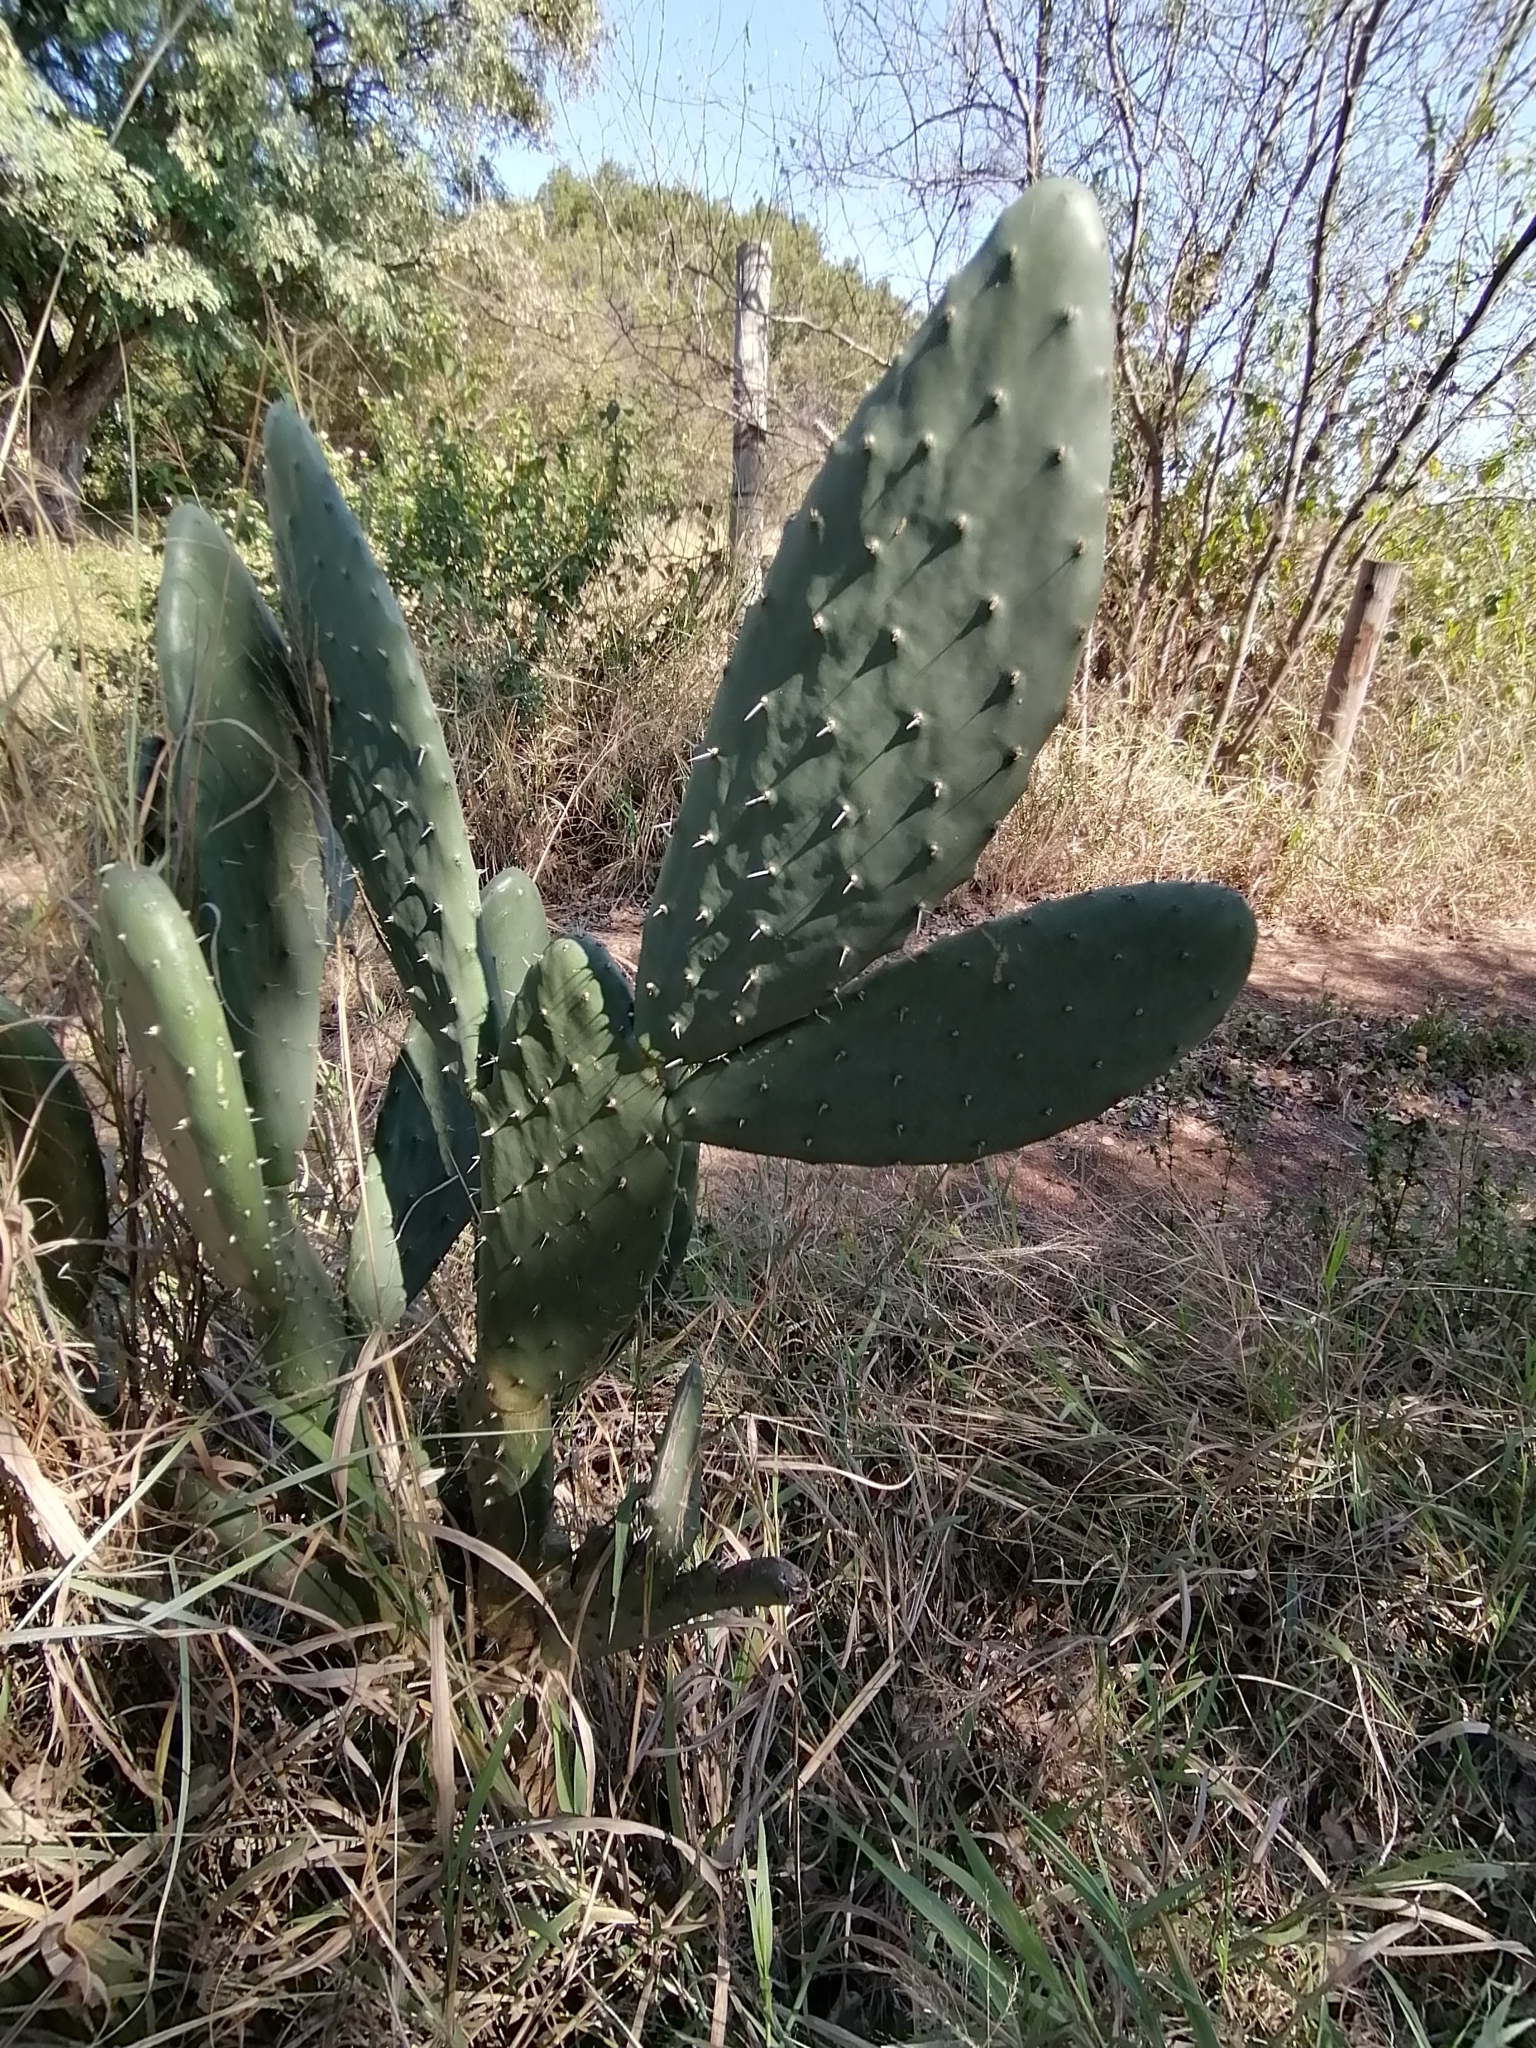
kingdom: Plantae
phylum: Tracheophyta
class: Magnoliopsida
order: Caryophyllales
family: Cactaceae
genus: Opuntia
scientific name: Opuntia ficus-indica
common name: Barbary fig
